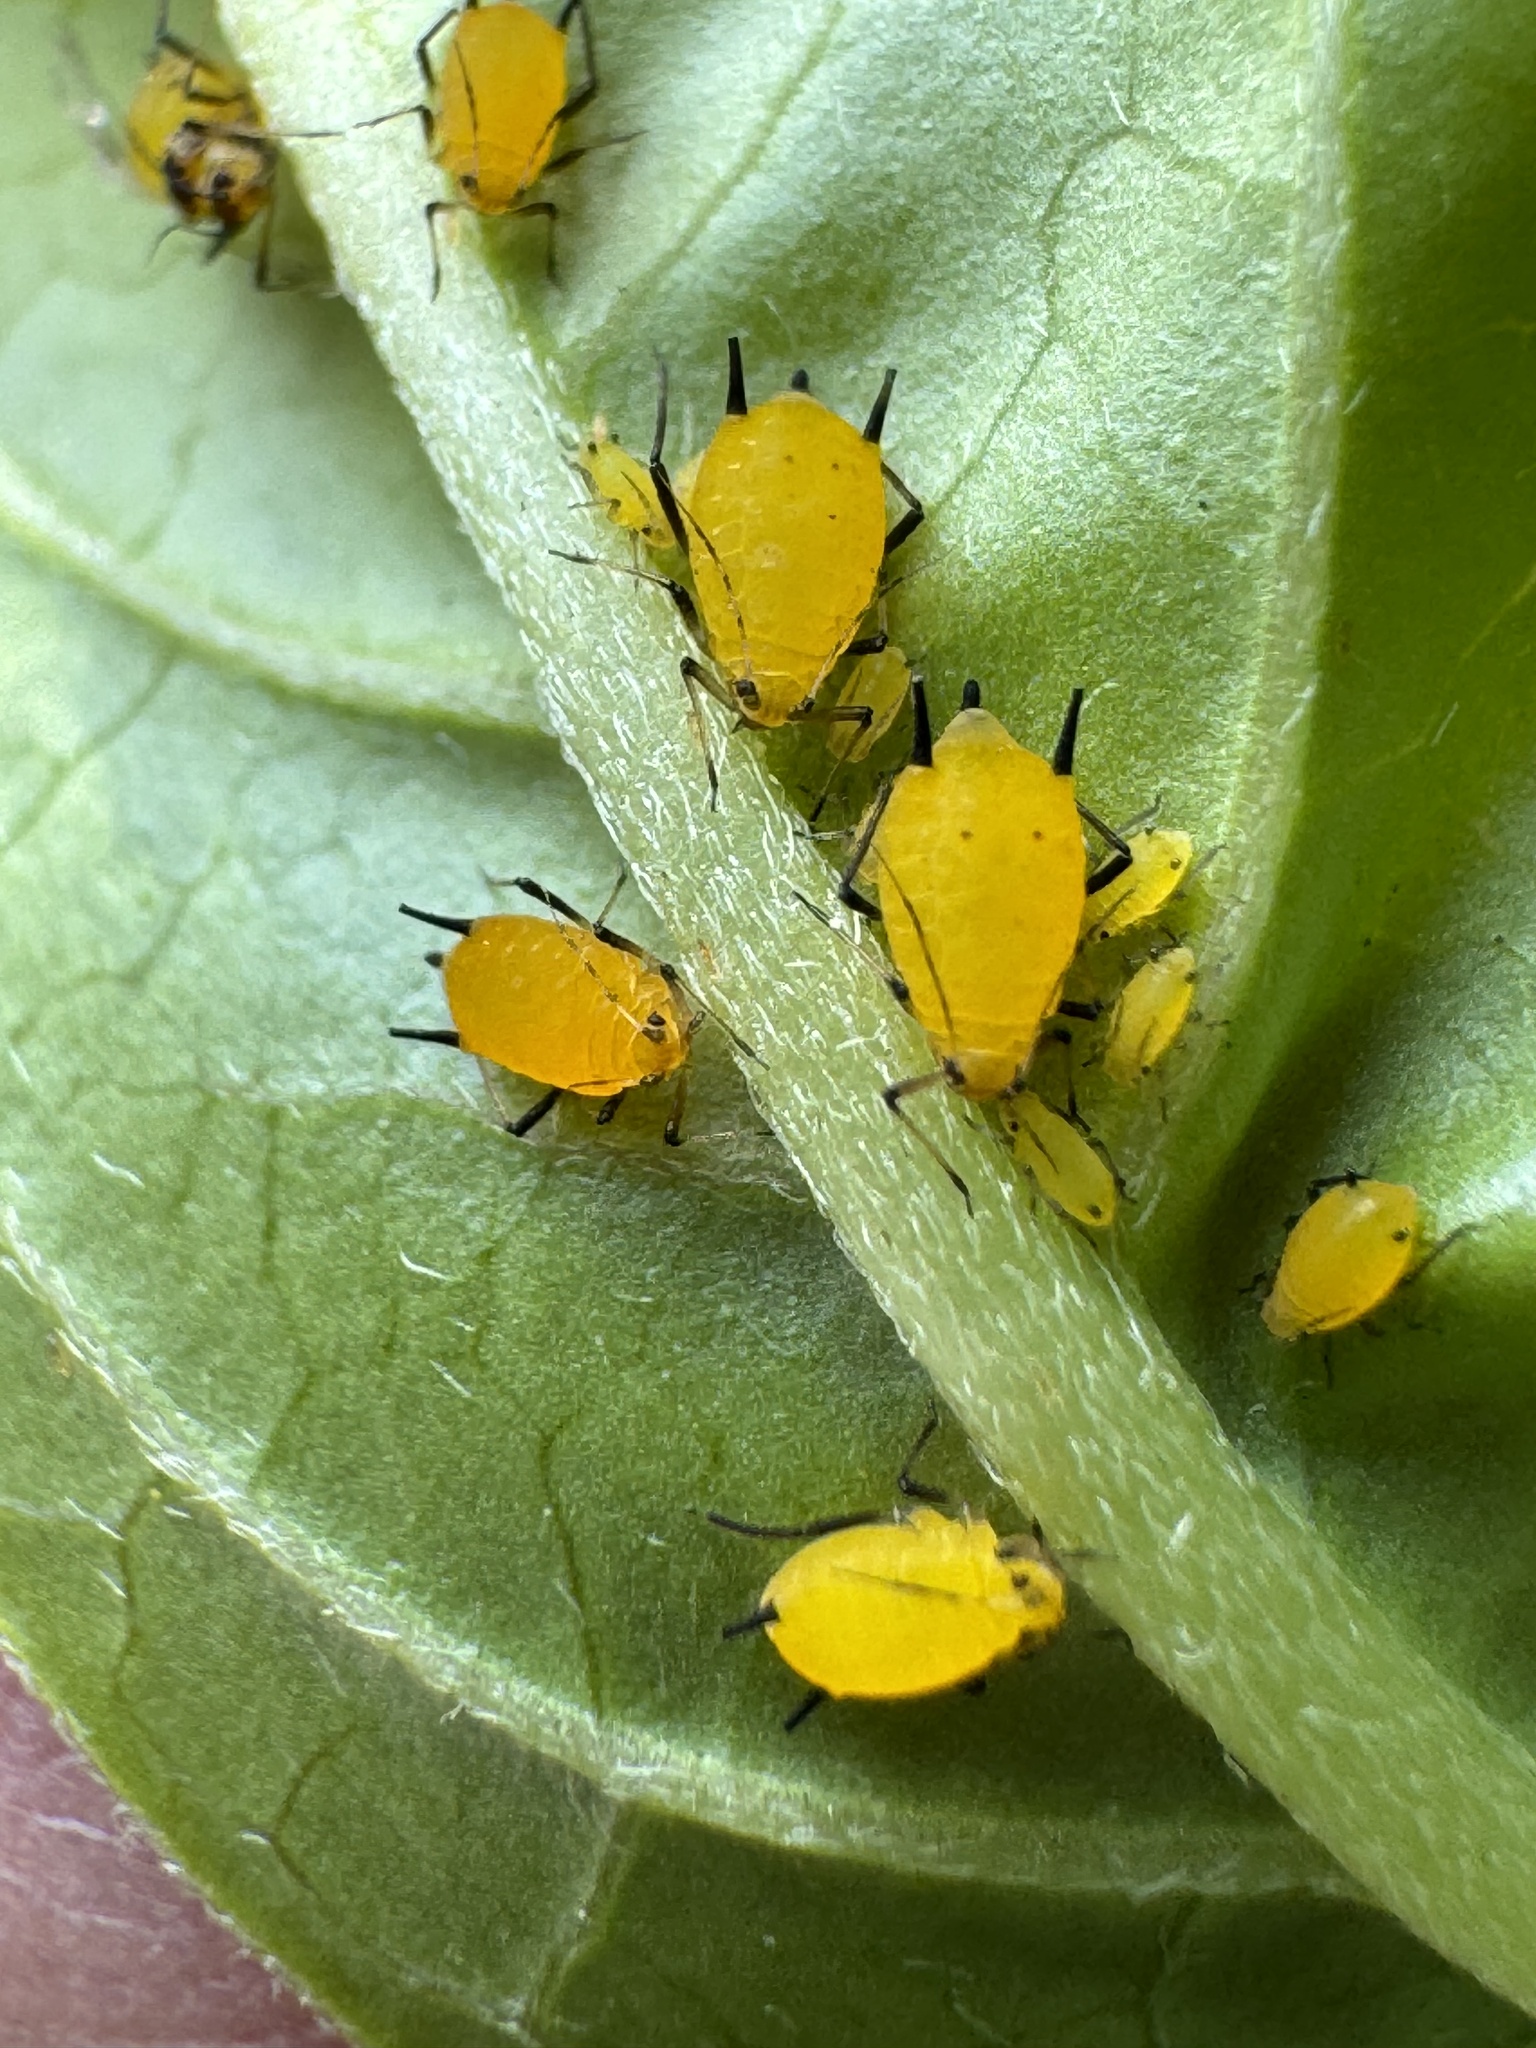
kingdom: Animalia
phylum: Arthropoda
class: Insecta
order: Hemiptera
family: Aphididae
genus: Aphis
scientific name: Aphis nerii
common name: Oleander aphid
